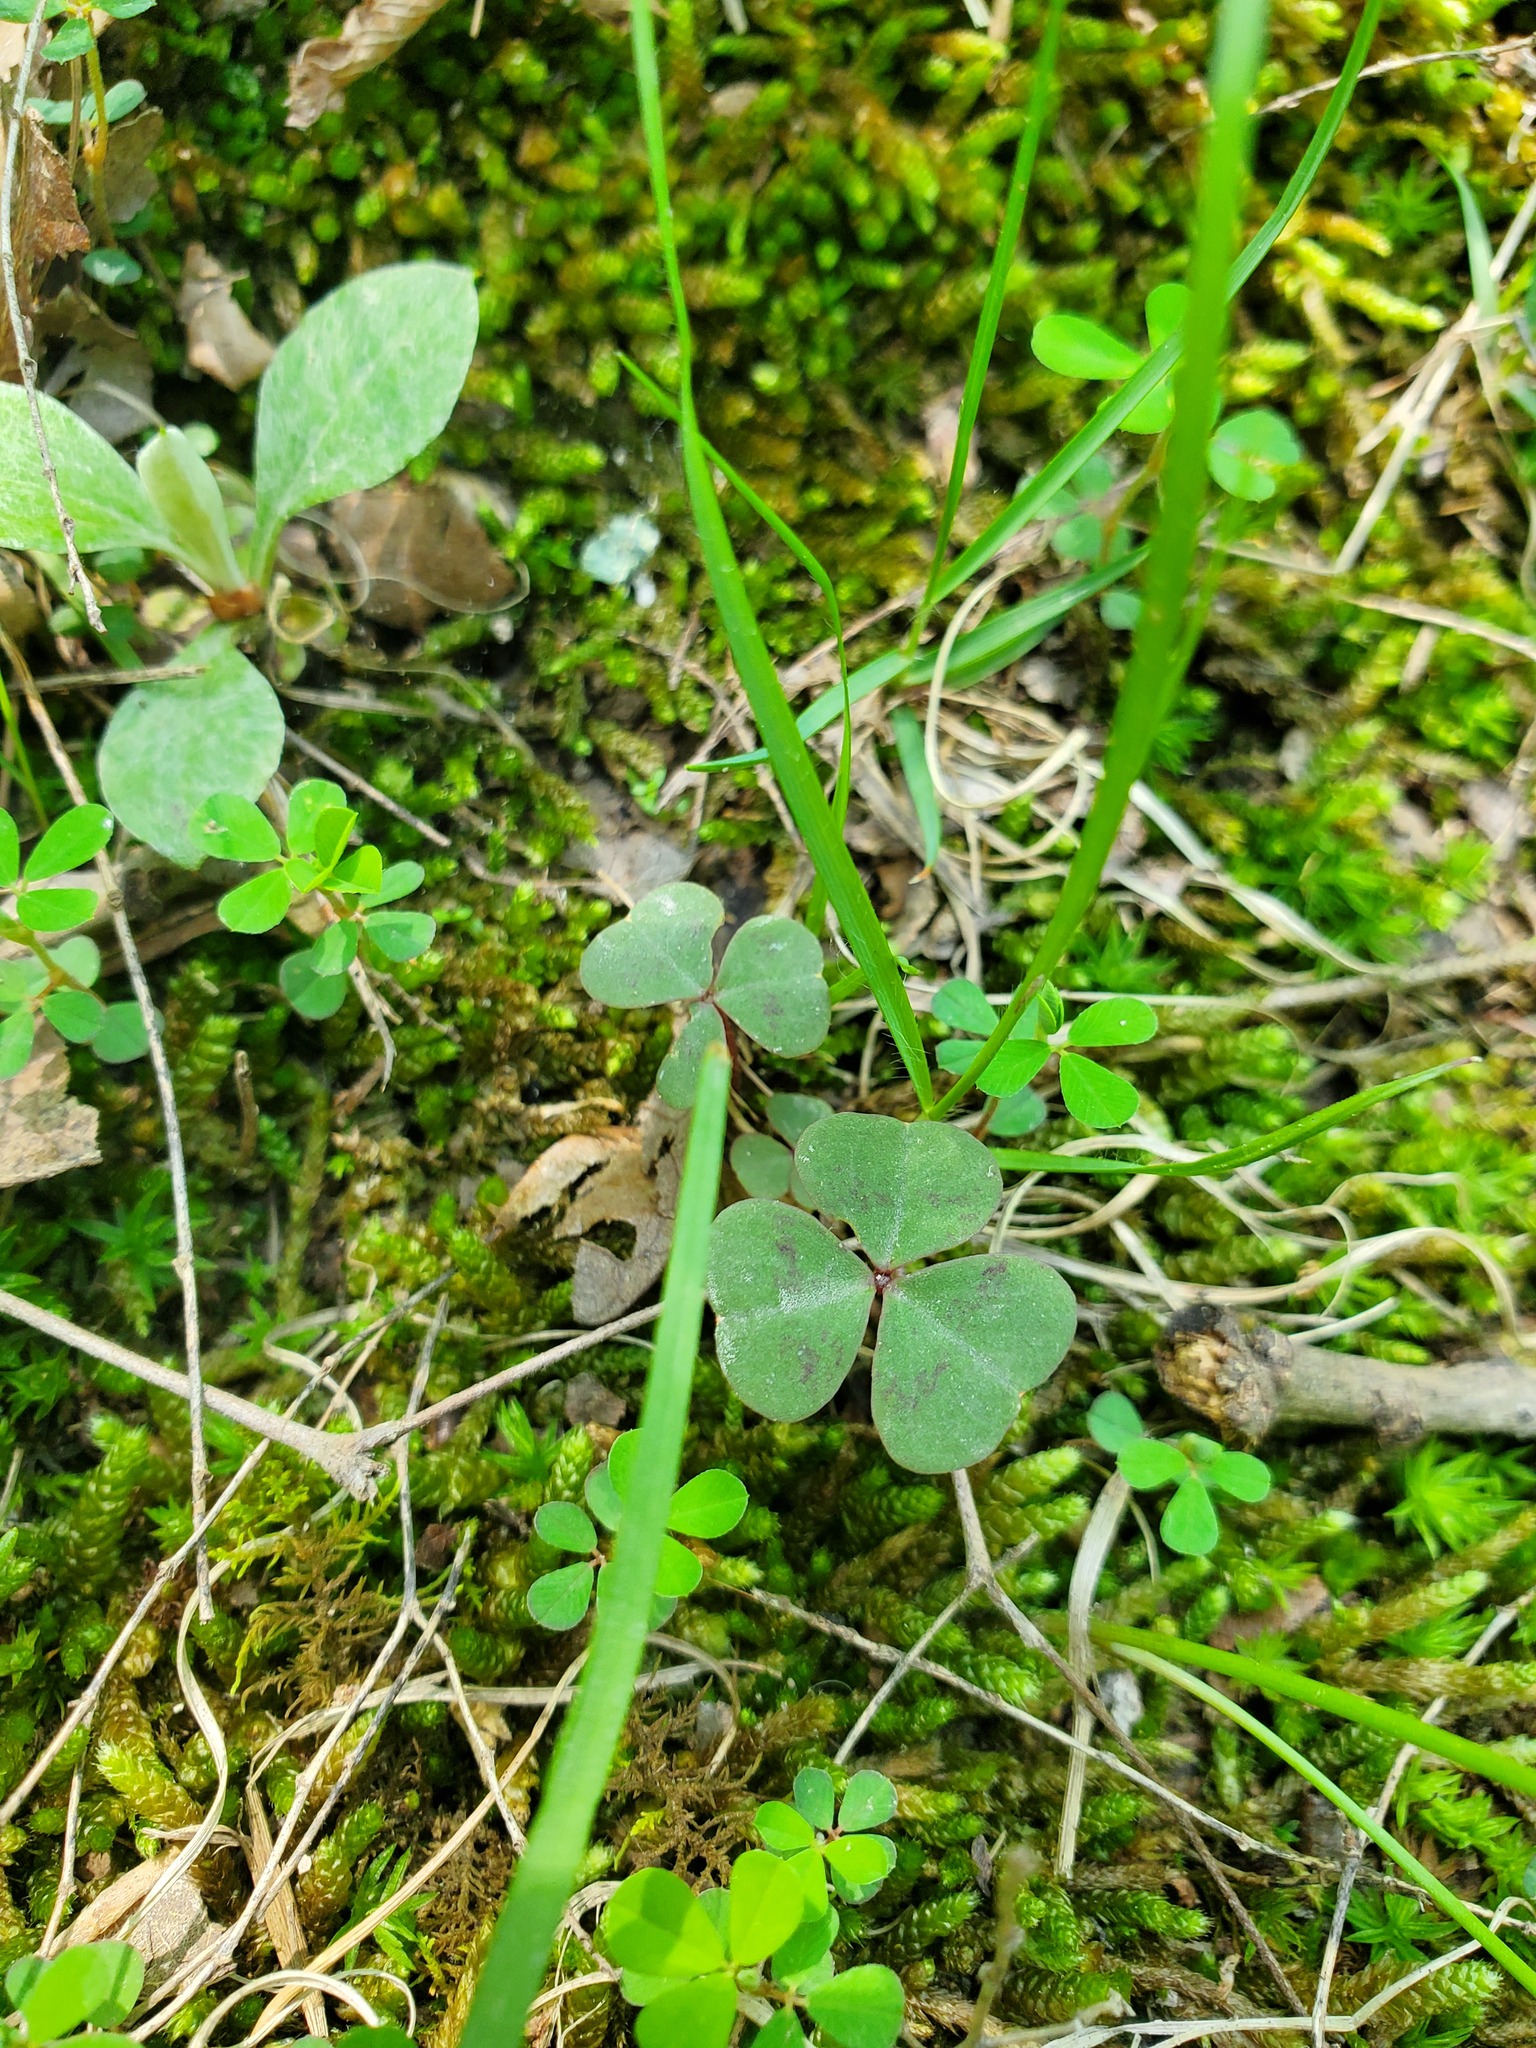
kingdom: Plantae
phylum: Tracheophyta
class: Magnoliopsida
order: Oxalidales
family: Oxalidaceae
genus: Oxalis
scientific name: Oxalis violacea
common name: Violet wood-sorrel
